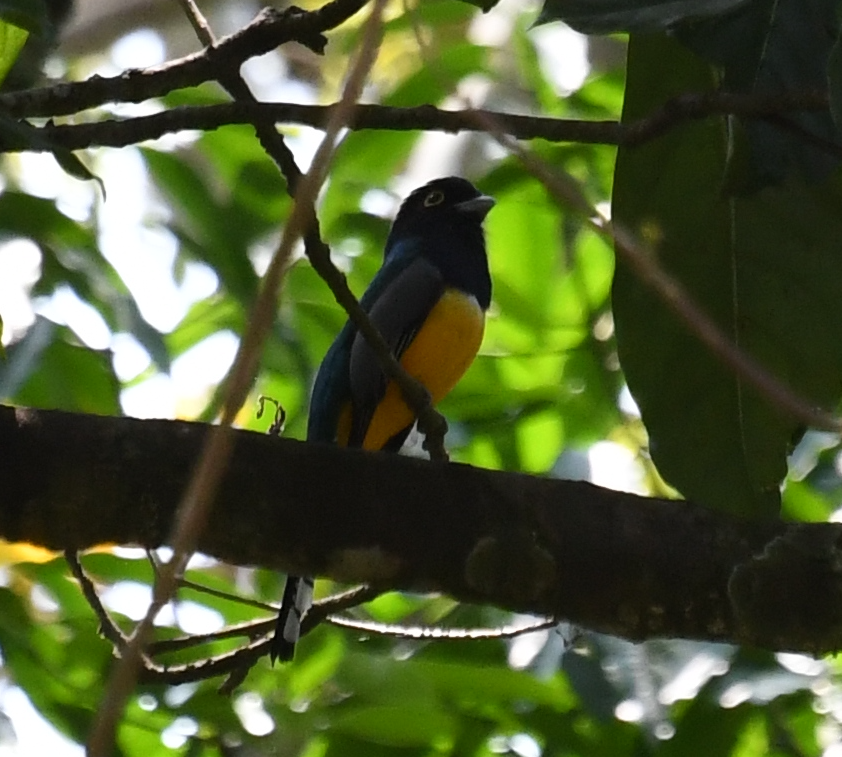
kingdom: Animalia
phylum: Chordata
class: Aves
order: Trogoniformes
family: Trogonidae
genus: Trogon
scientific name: Trogon caligatus
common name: Gartered trogon
